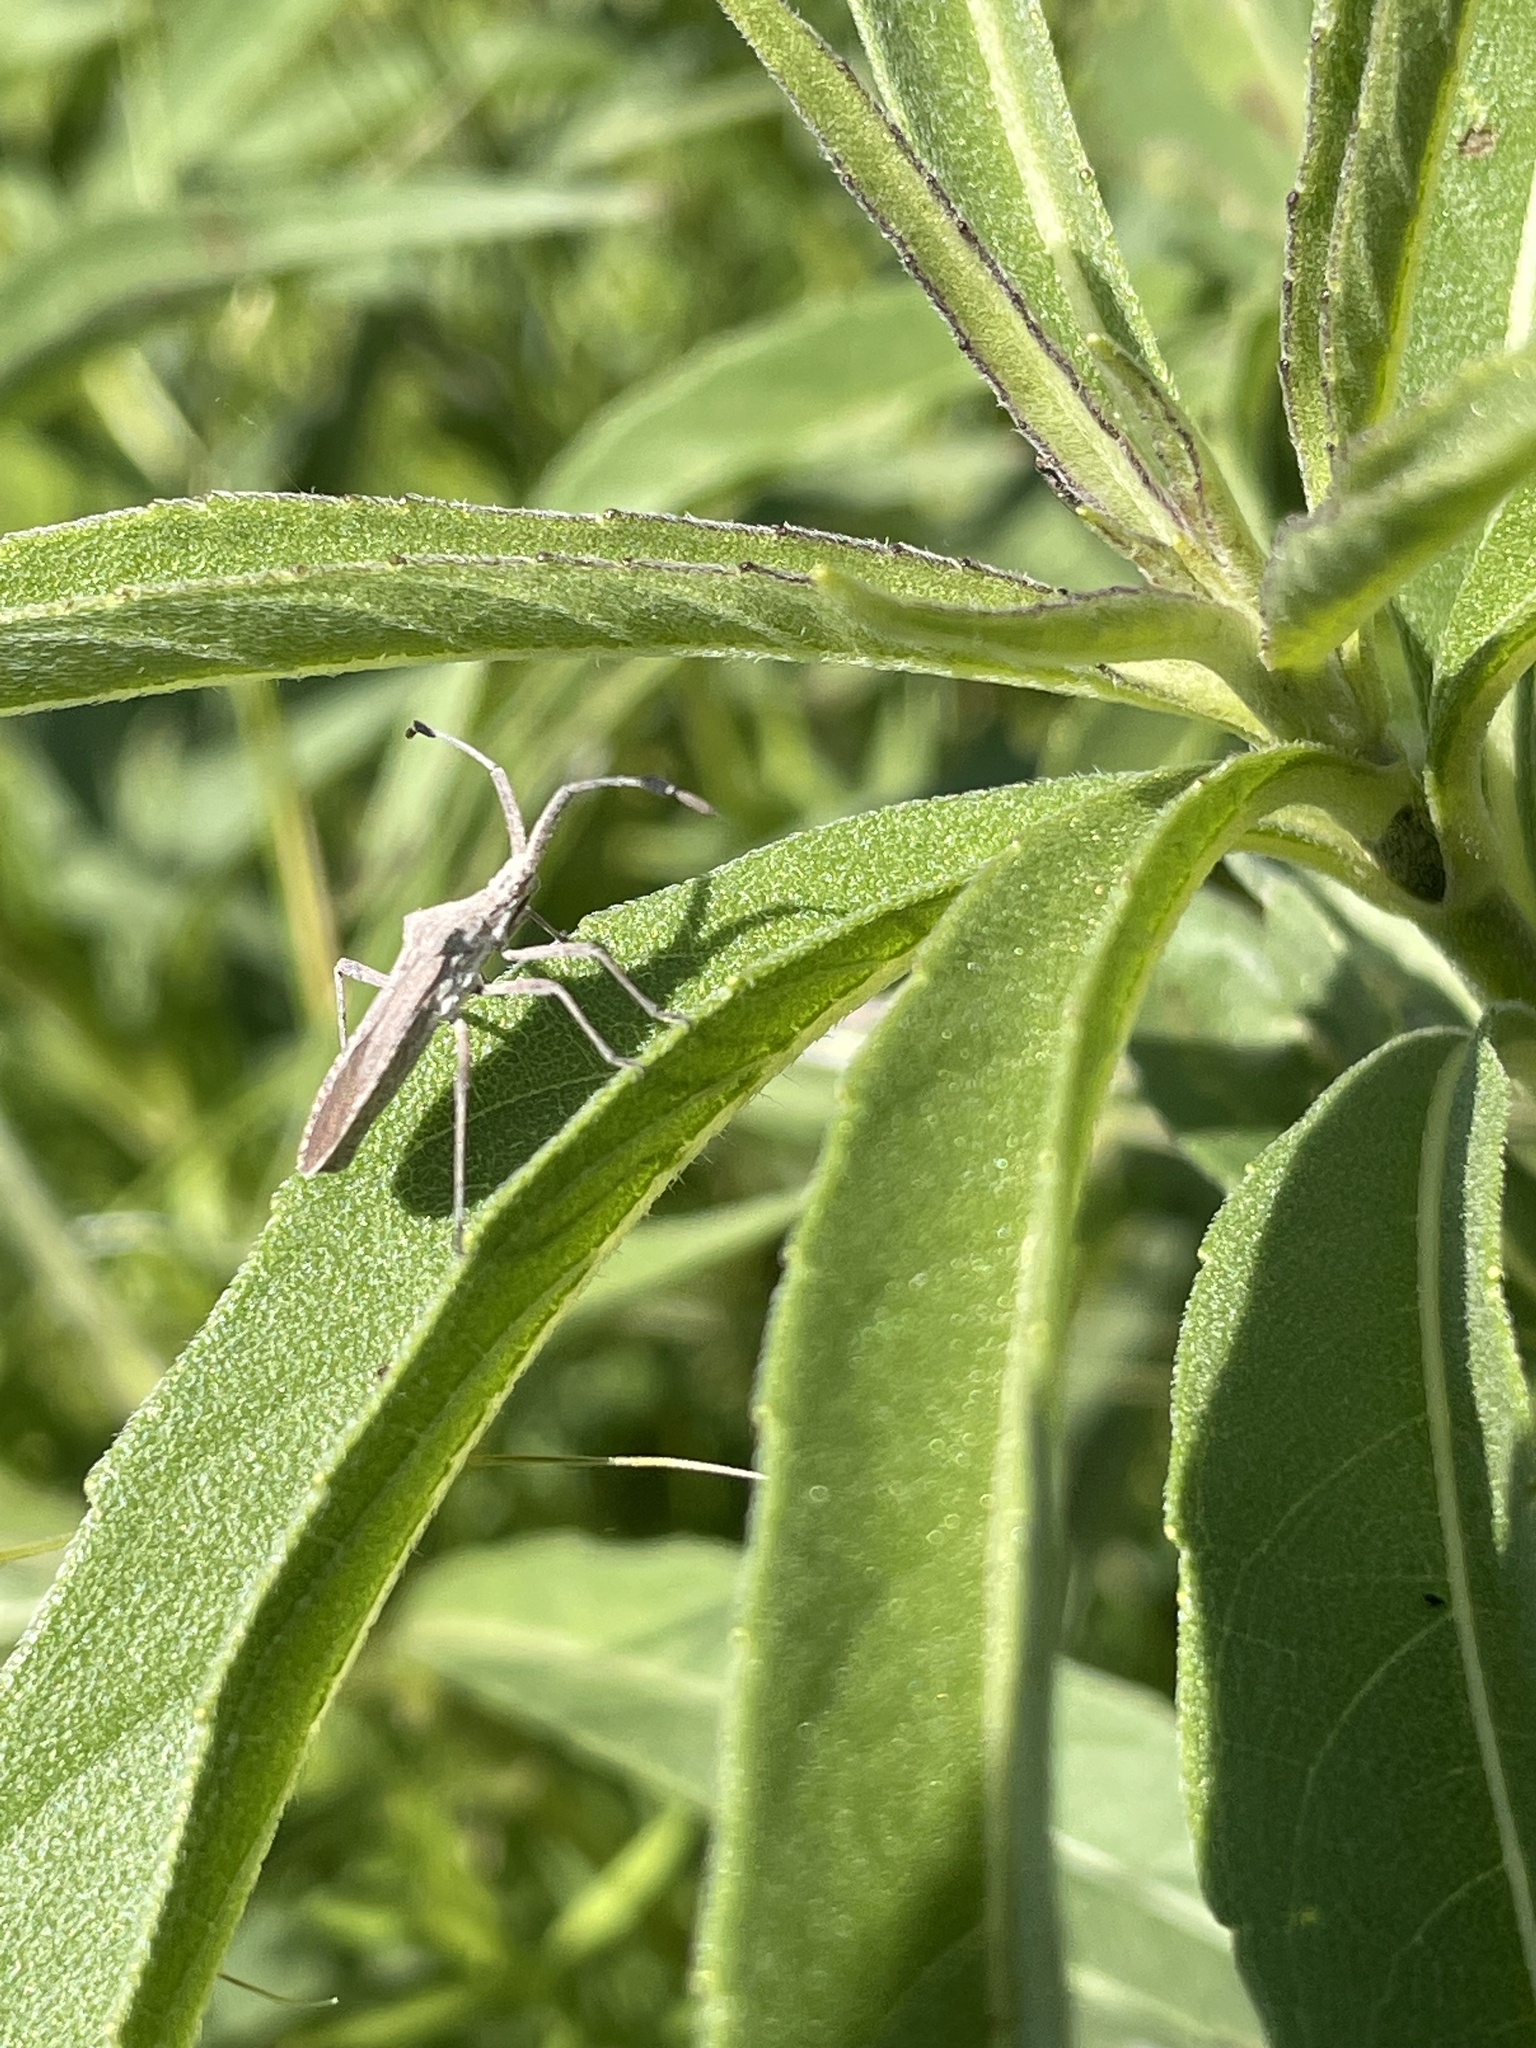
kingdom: Animalia
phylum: Arthropoda
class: Insecta
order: Hemiptera
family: Coreidae
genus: Chariesterus
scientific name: Chariesterus antennator
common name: Flat horned coreid
